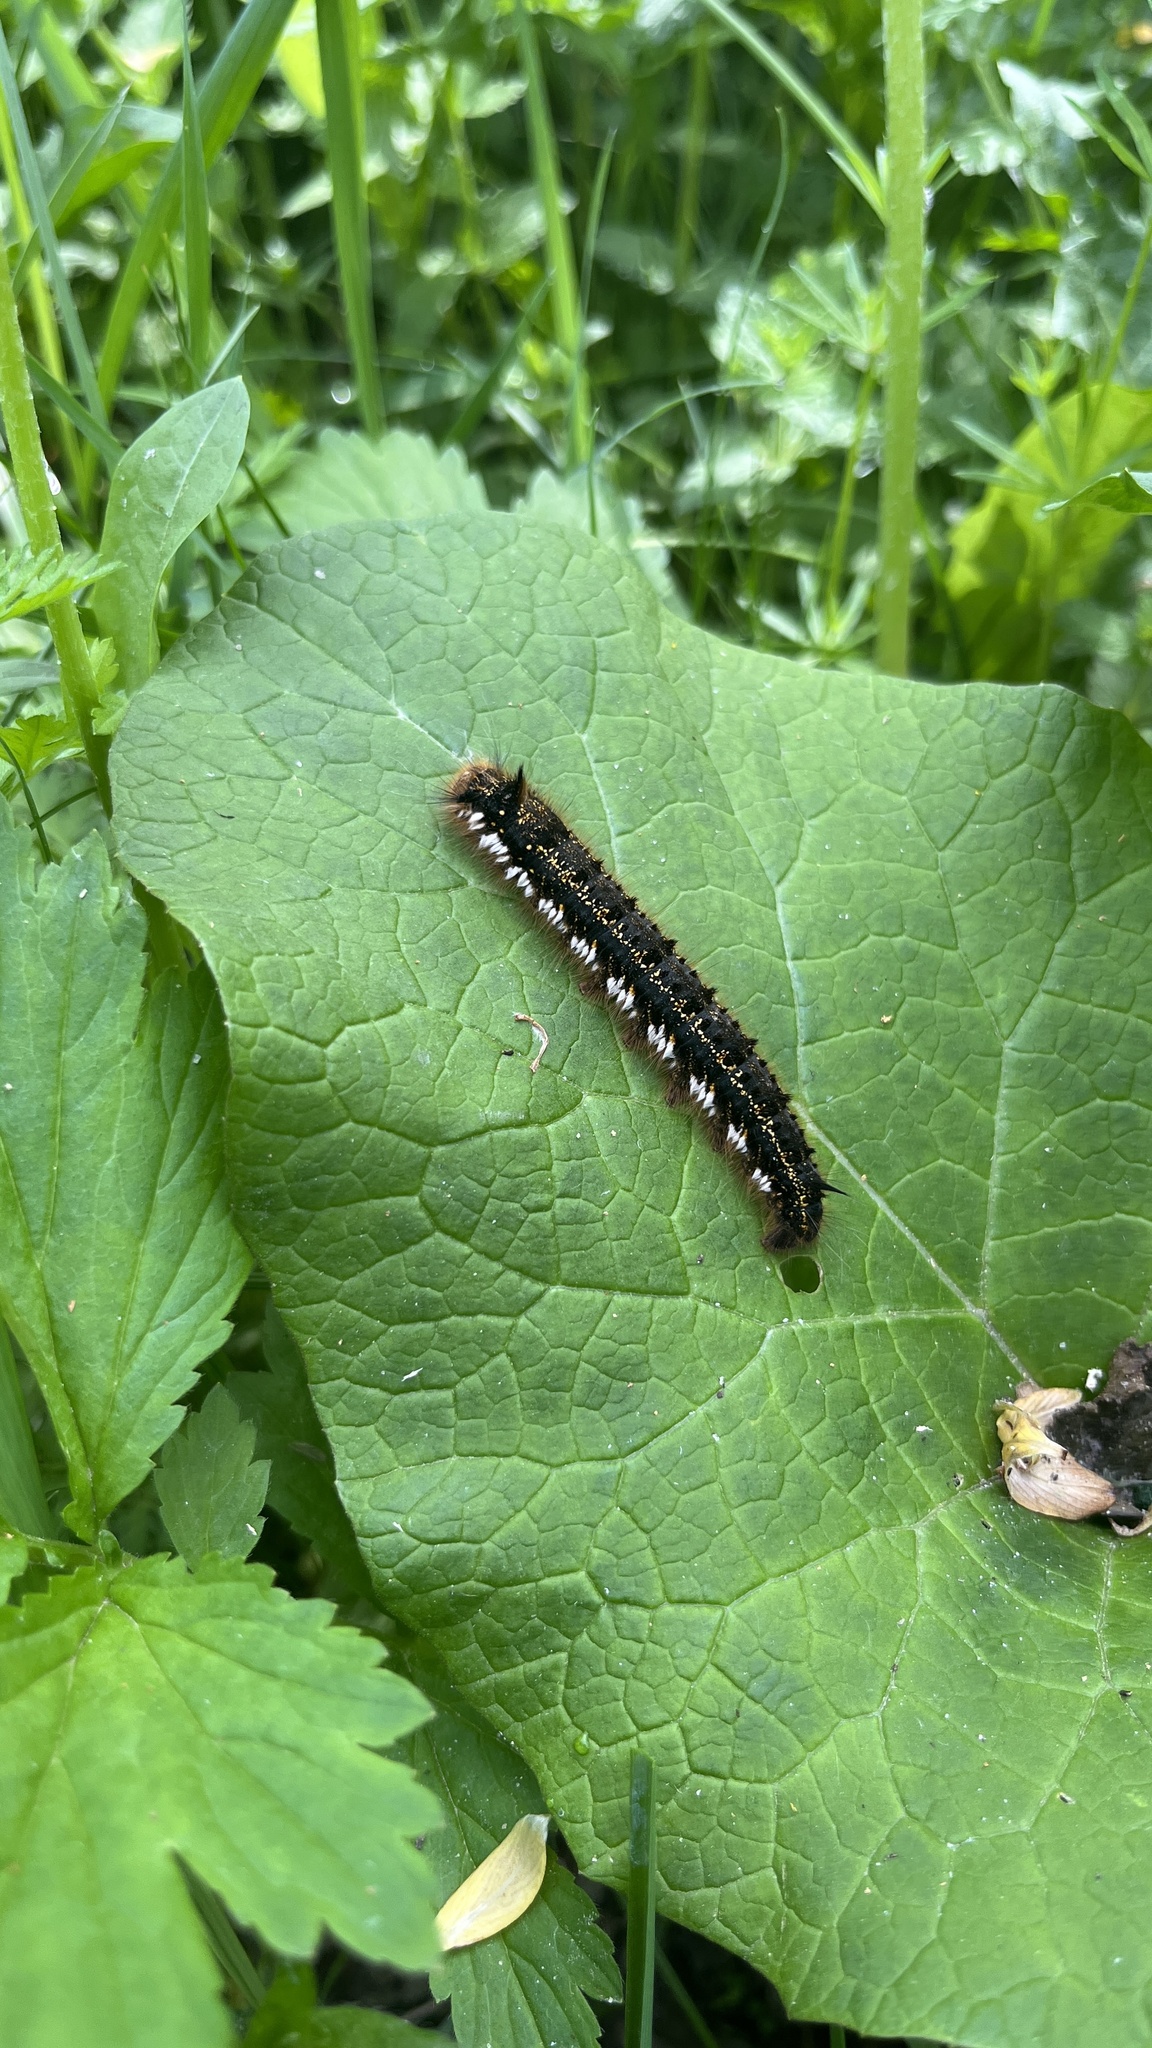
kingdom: Animalia
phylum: Arthropoda
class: Insecta
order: Lepidoptera
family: Lasiocampidae
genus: Euthrix
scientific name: Euthrix potatoria
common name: Drinker
